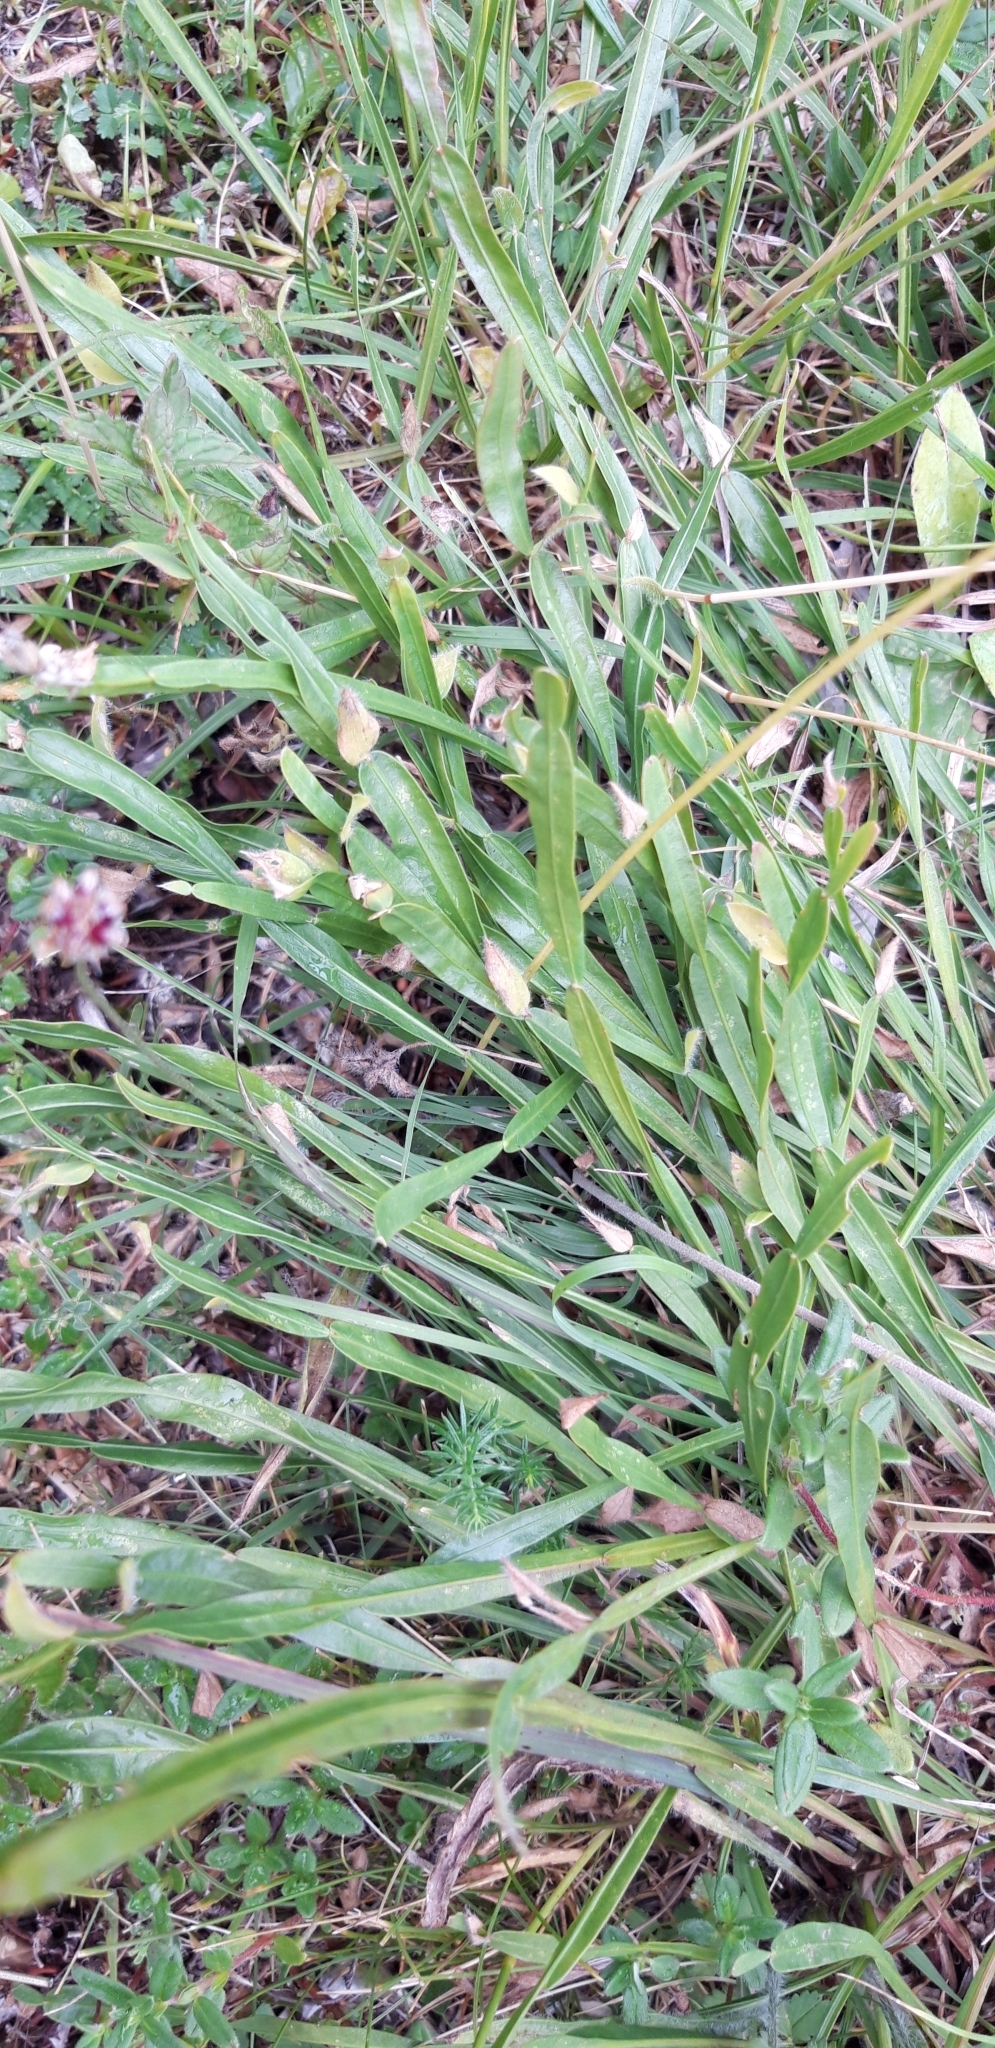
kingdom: Plantae
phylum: Tracheophyta
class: Magnoliopsida
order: Fabales
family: Fabaceae
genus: Genista
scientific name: Genista sagittalis
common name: Winged greenweed
